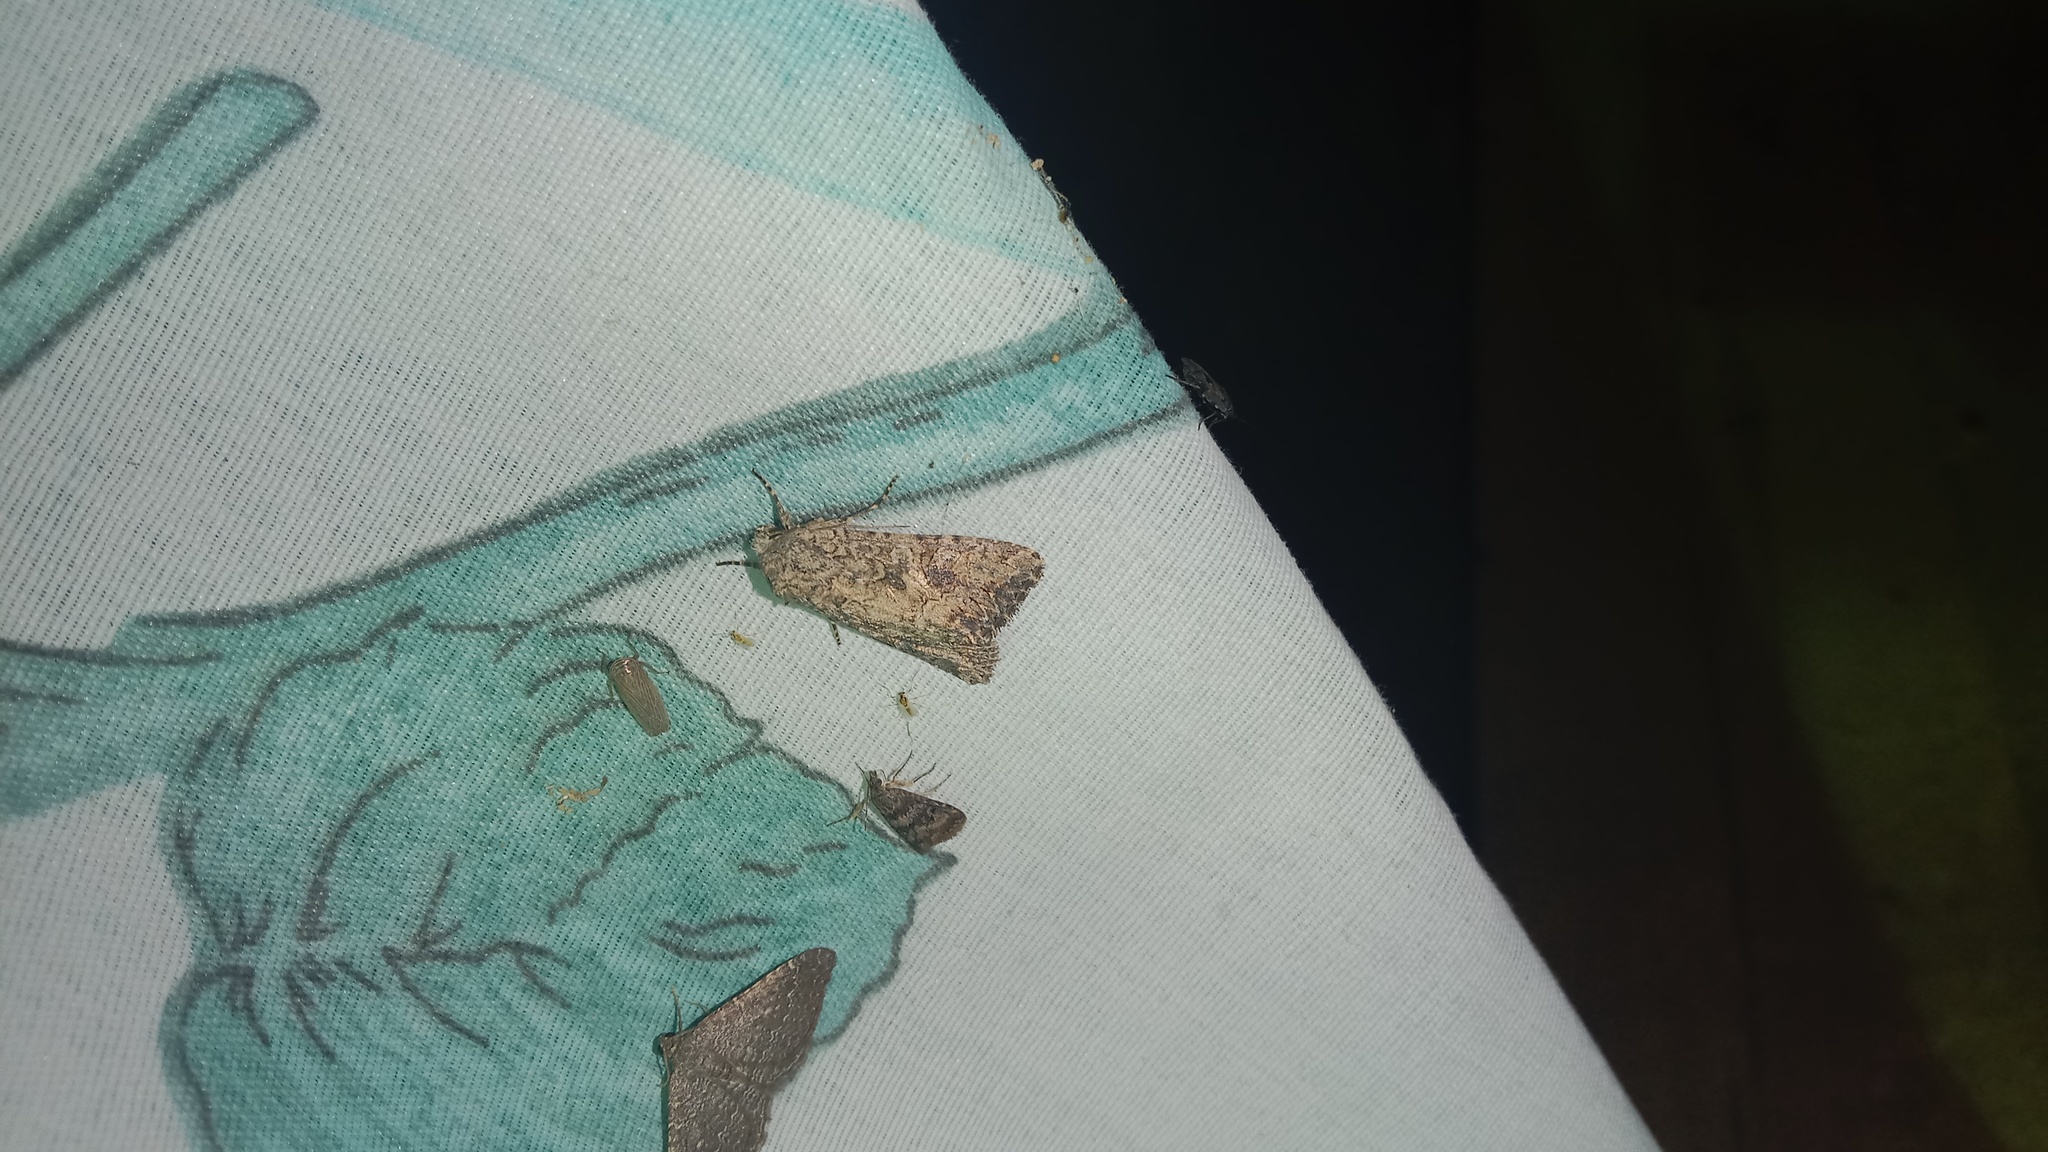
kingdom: Animalia
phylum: Arthropoda
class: Insecta
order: Lepidoptera
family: Noctuidae
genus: Anarta
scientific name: Anarta trifolii
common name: Clover cutworm moth
